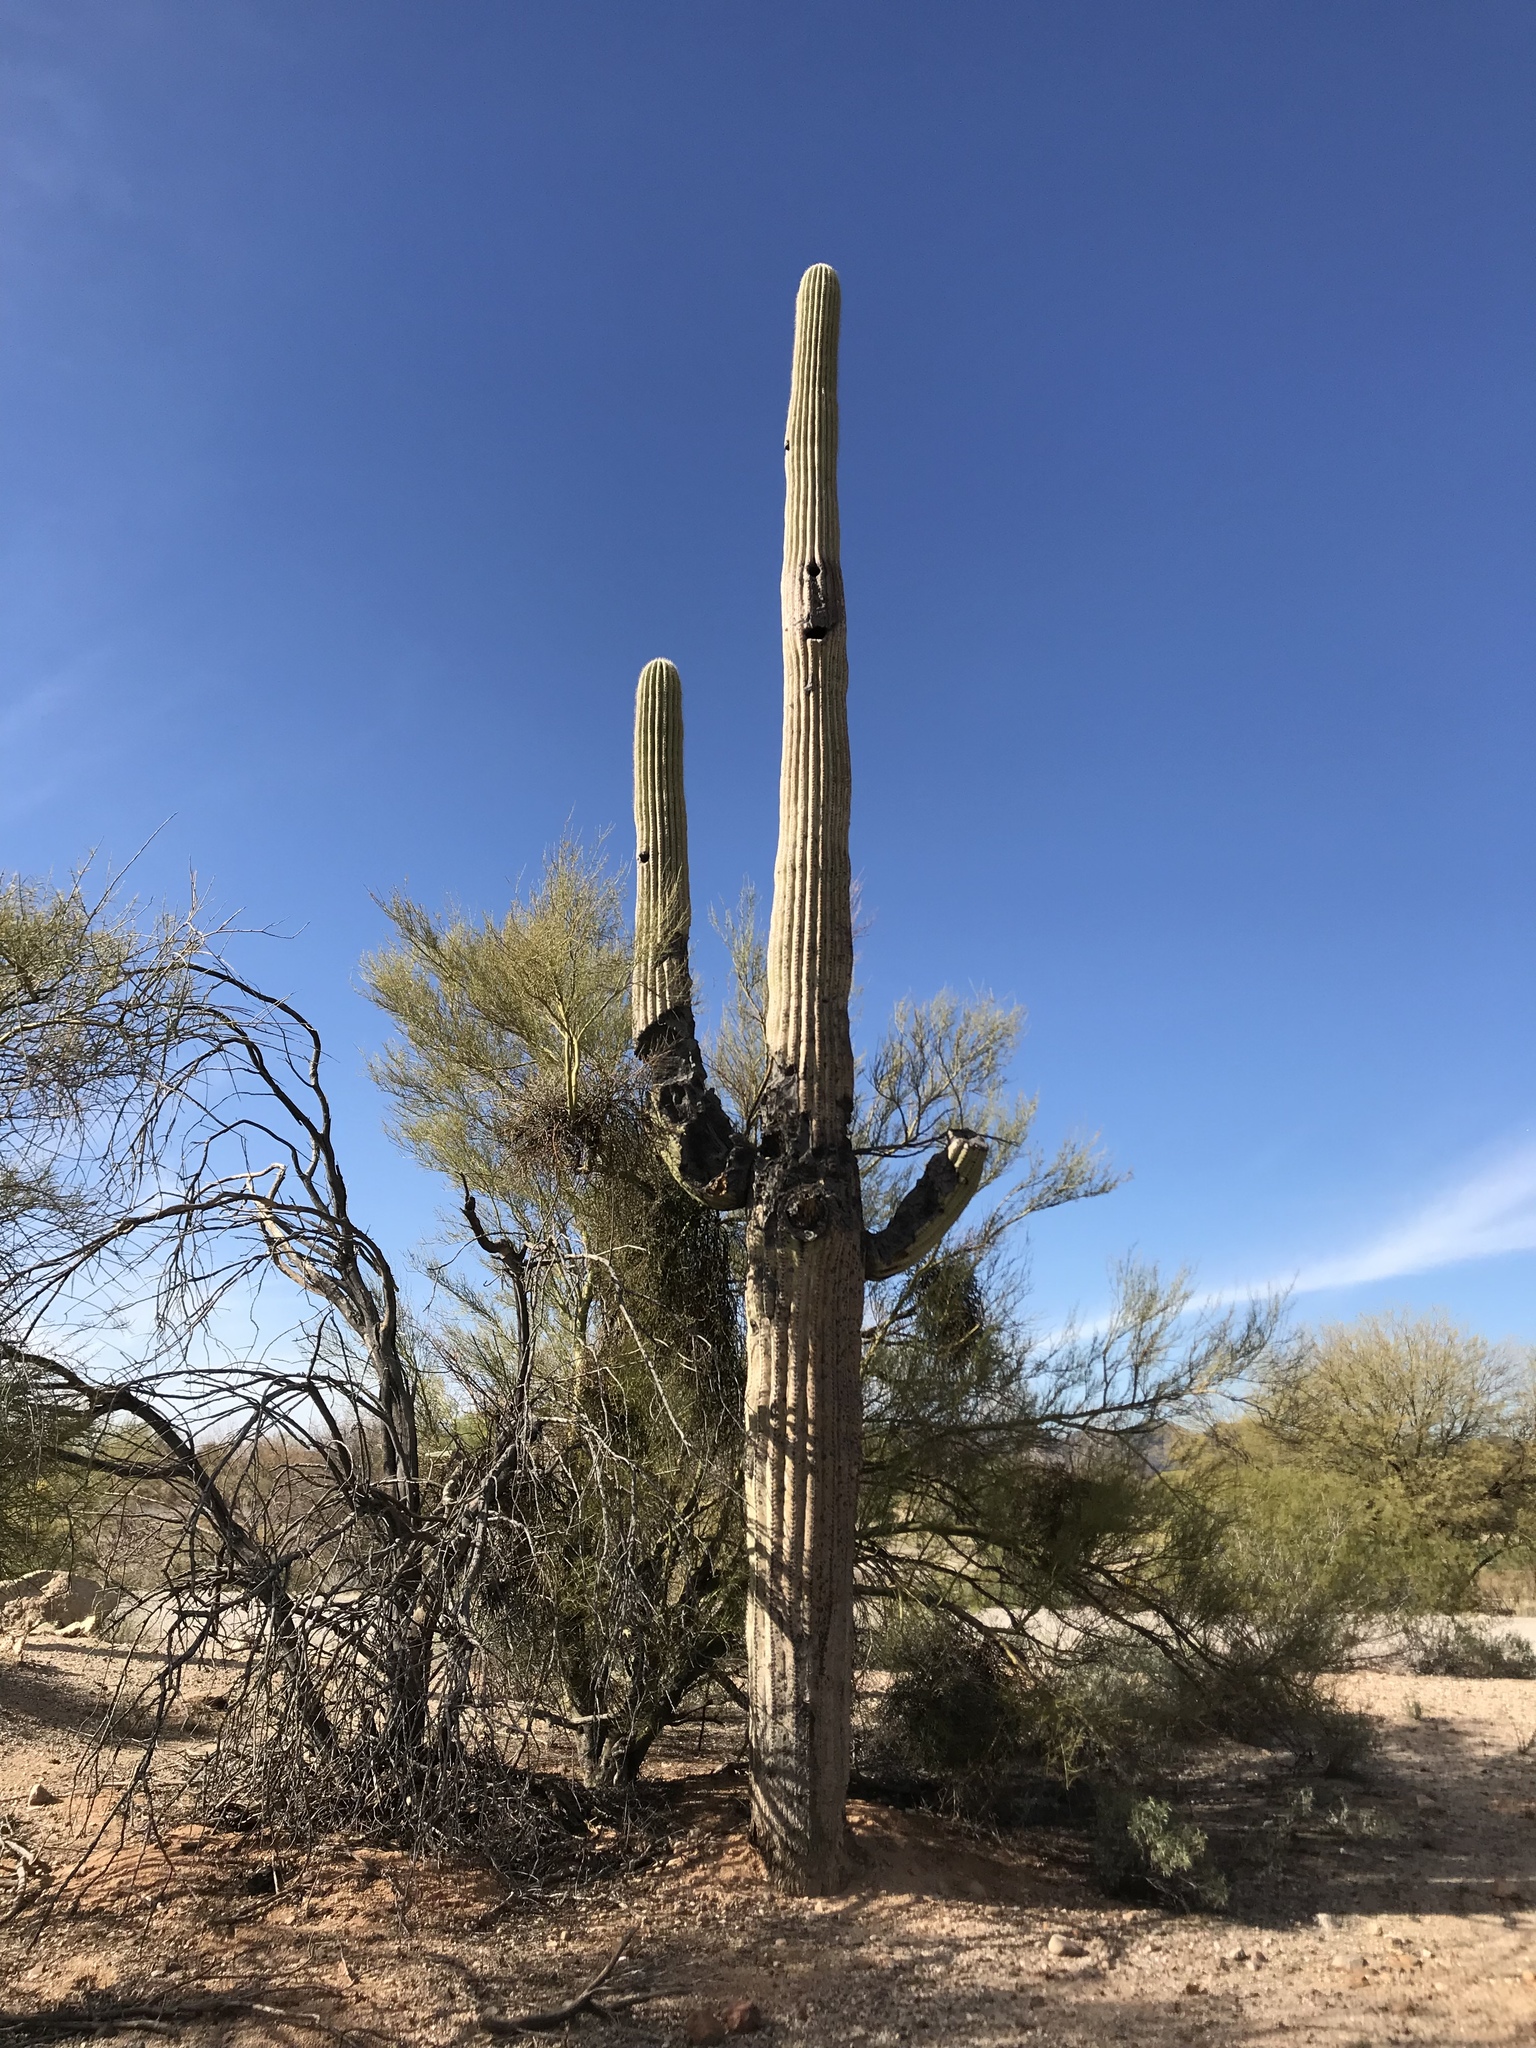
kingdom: Plantae
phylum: Tracheophyta
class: Magnoliopsida
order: Caryophyllales
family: Cactaceae
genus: Carnegiea
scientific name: Carnegiea gigantea
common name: Saguaro
